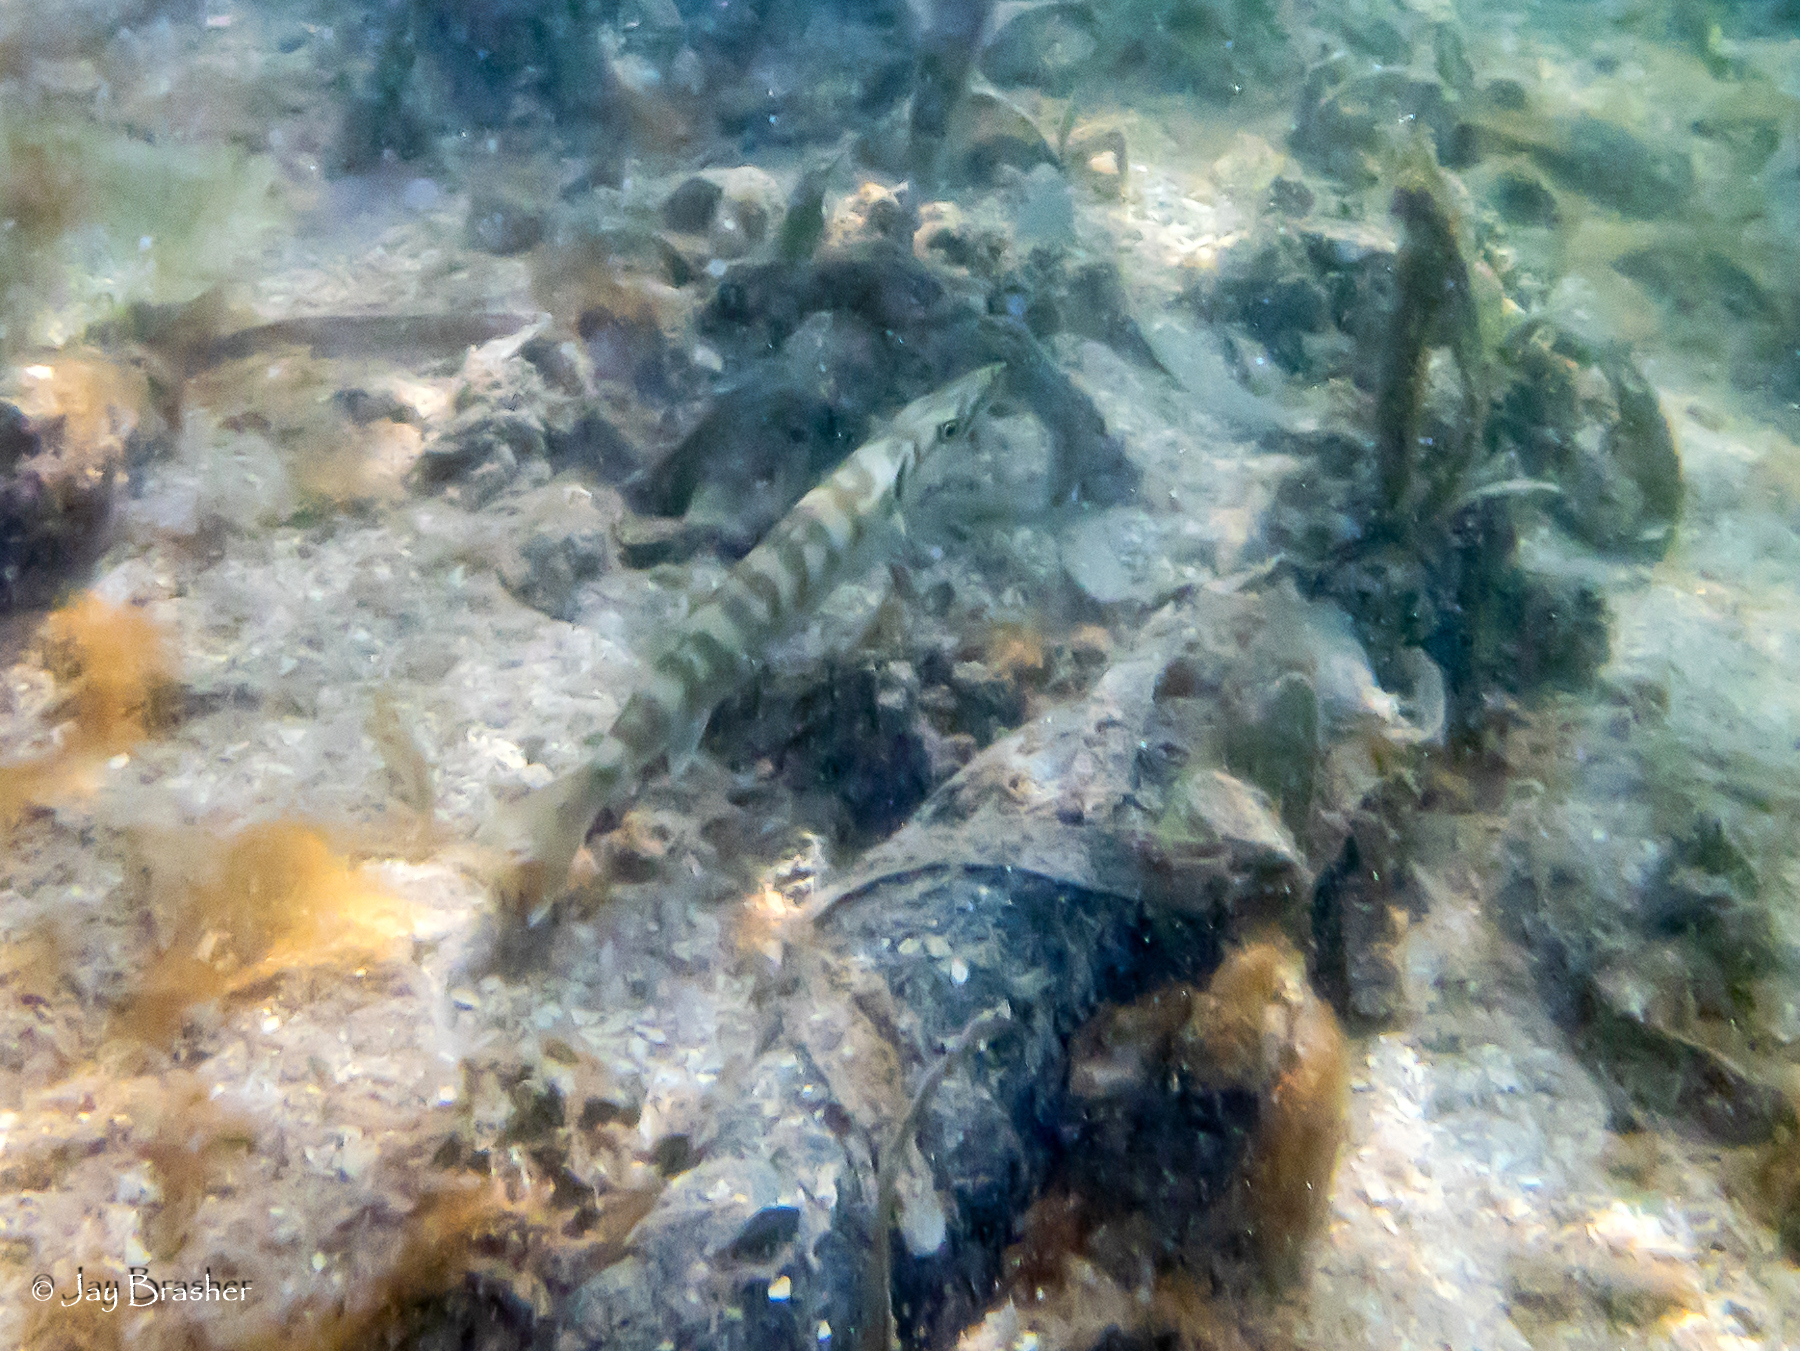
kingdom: Animalia
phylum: Chordata
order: Perciformes
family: Sphyraenidae
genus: Sphyraena
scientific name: Sphyraena barracuda
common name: Great barracuda
